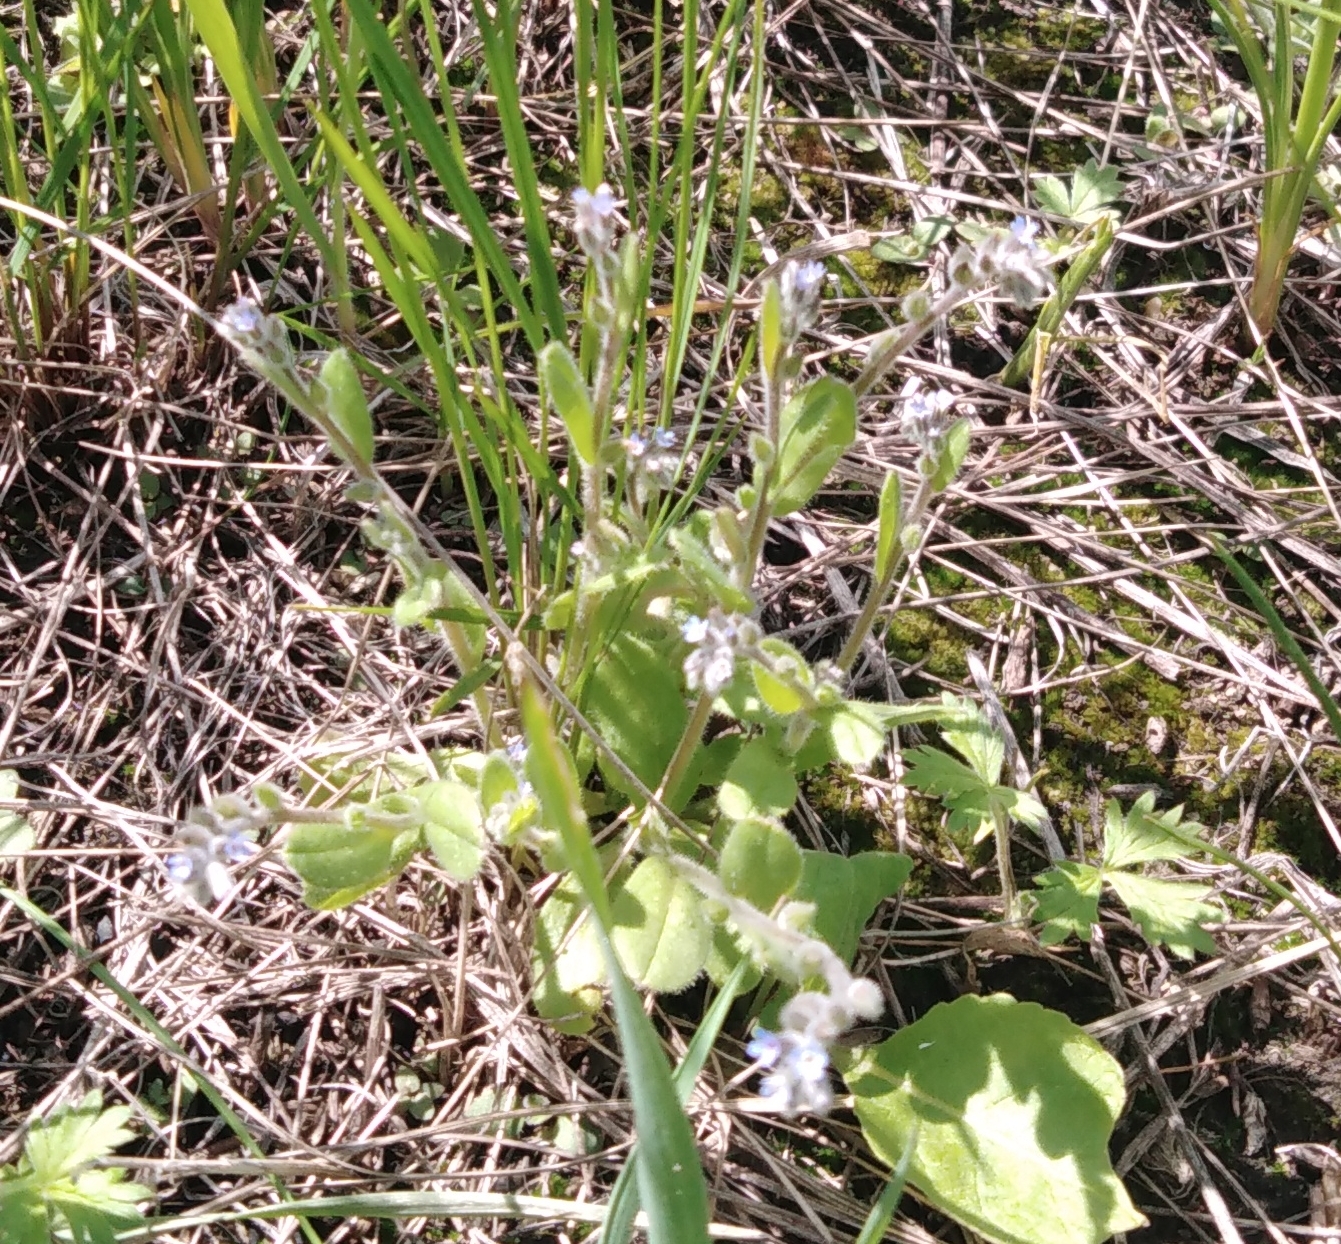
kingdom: Plantae
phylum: Tracheophyta
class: Magnoliopsida
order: Boraginales
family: Boraginaceae
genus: Myosotis
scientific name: Myosotis stricta
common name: Strict forget-me-not
